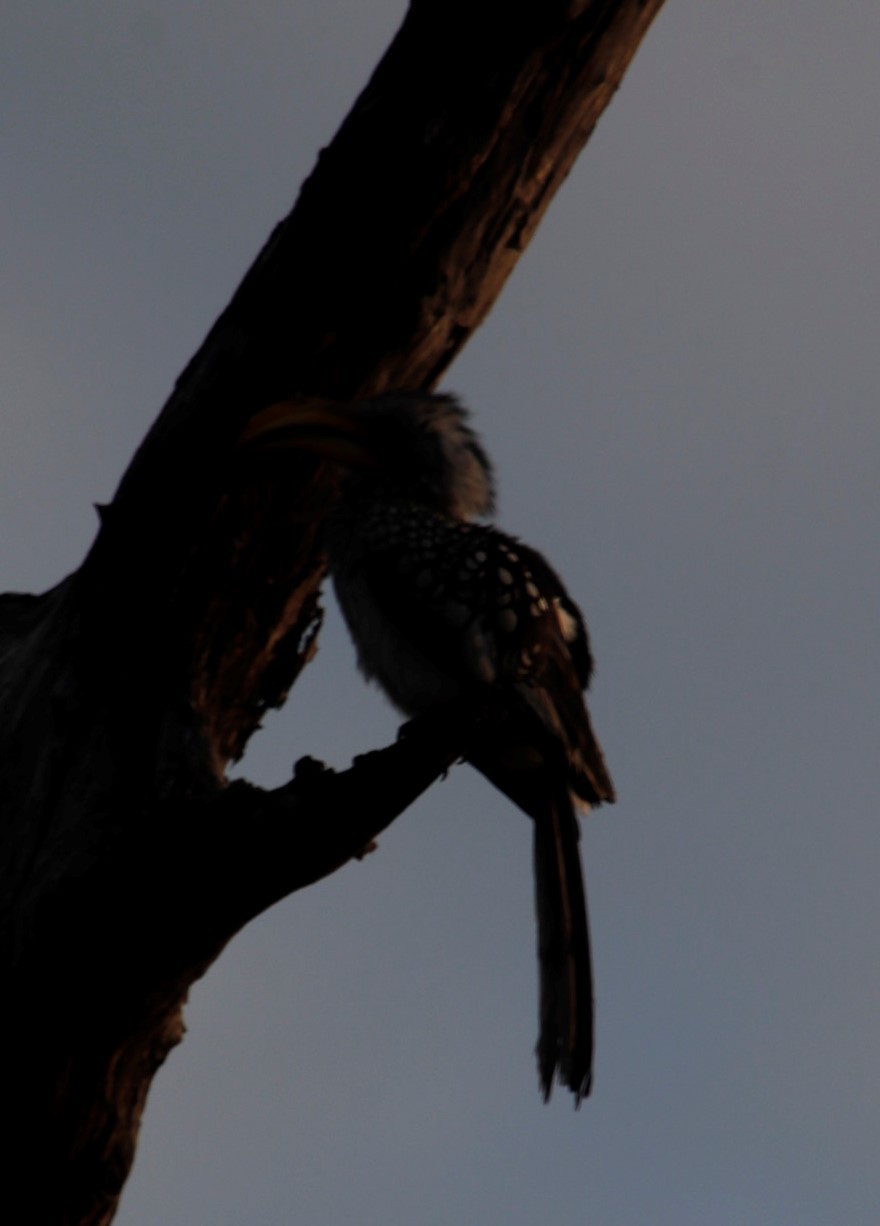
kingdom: Animalia
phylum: Chordata
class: Aves
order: Bucerotiformes
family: Bucerotidae
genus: Tockus
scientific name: Tockus leucomelas
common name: Southern yellow-billed hornbill
